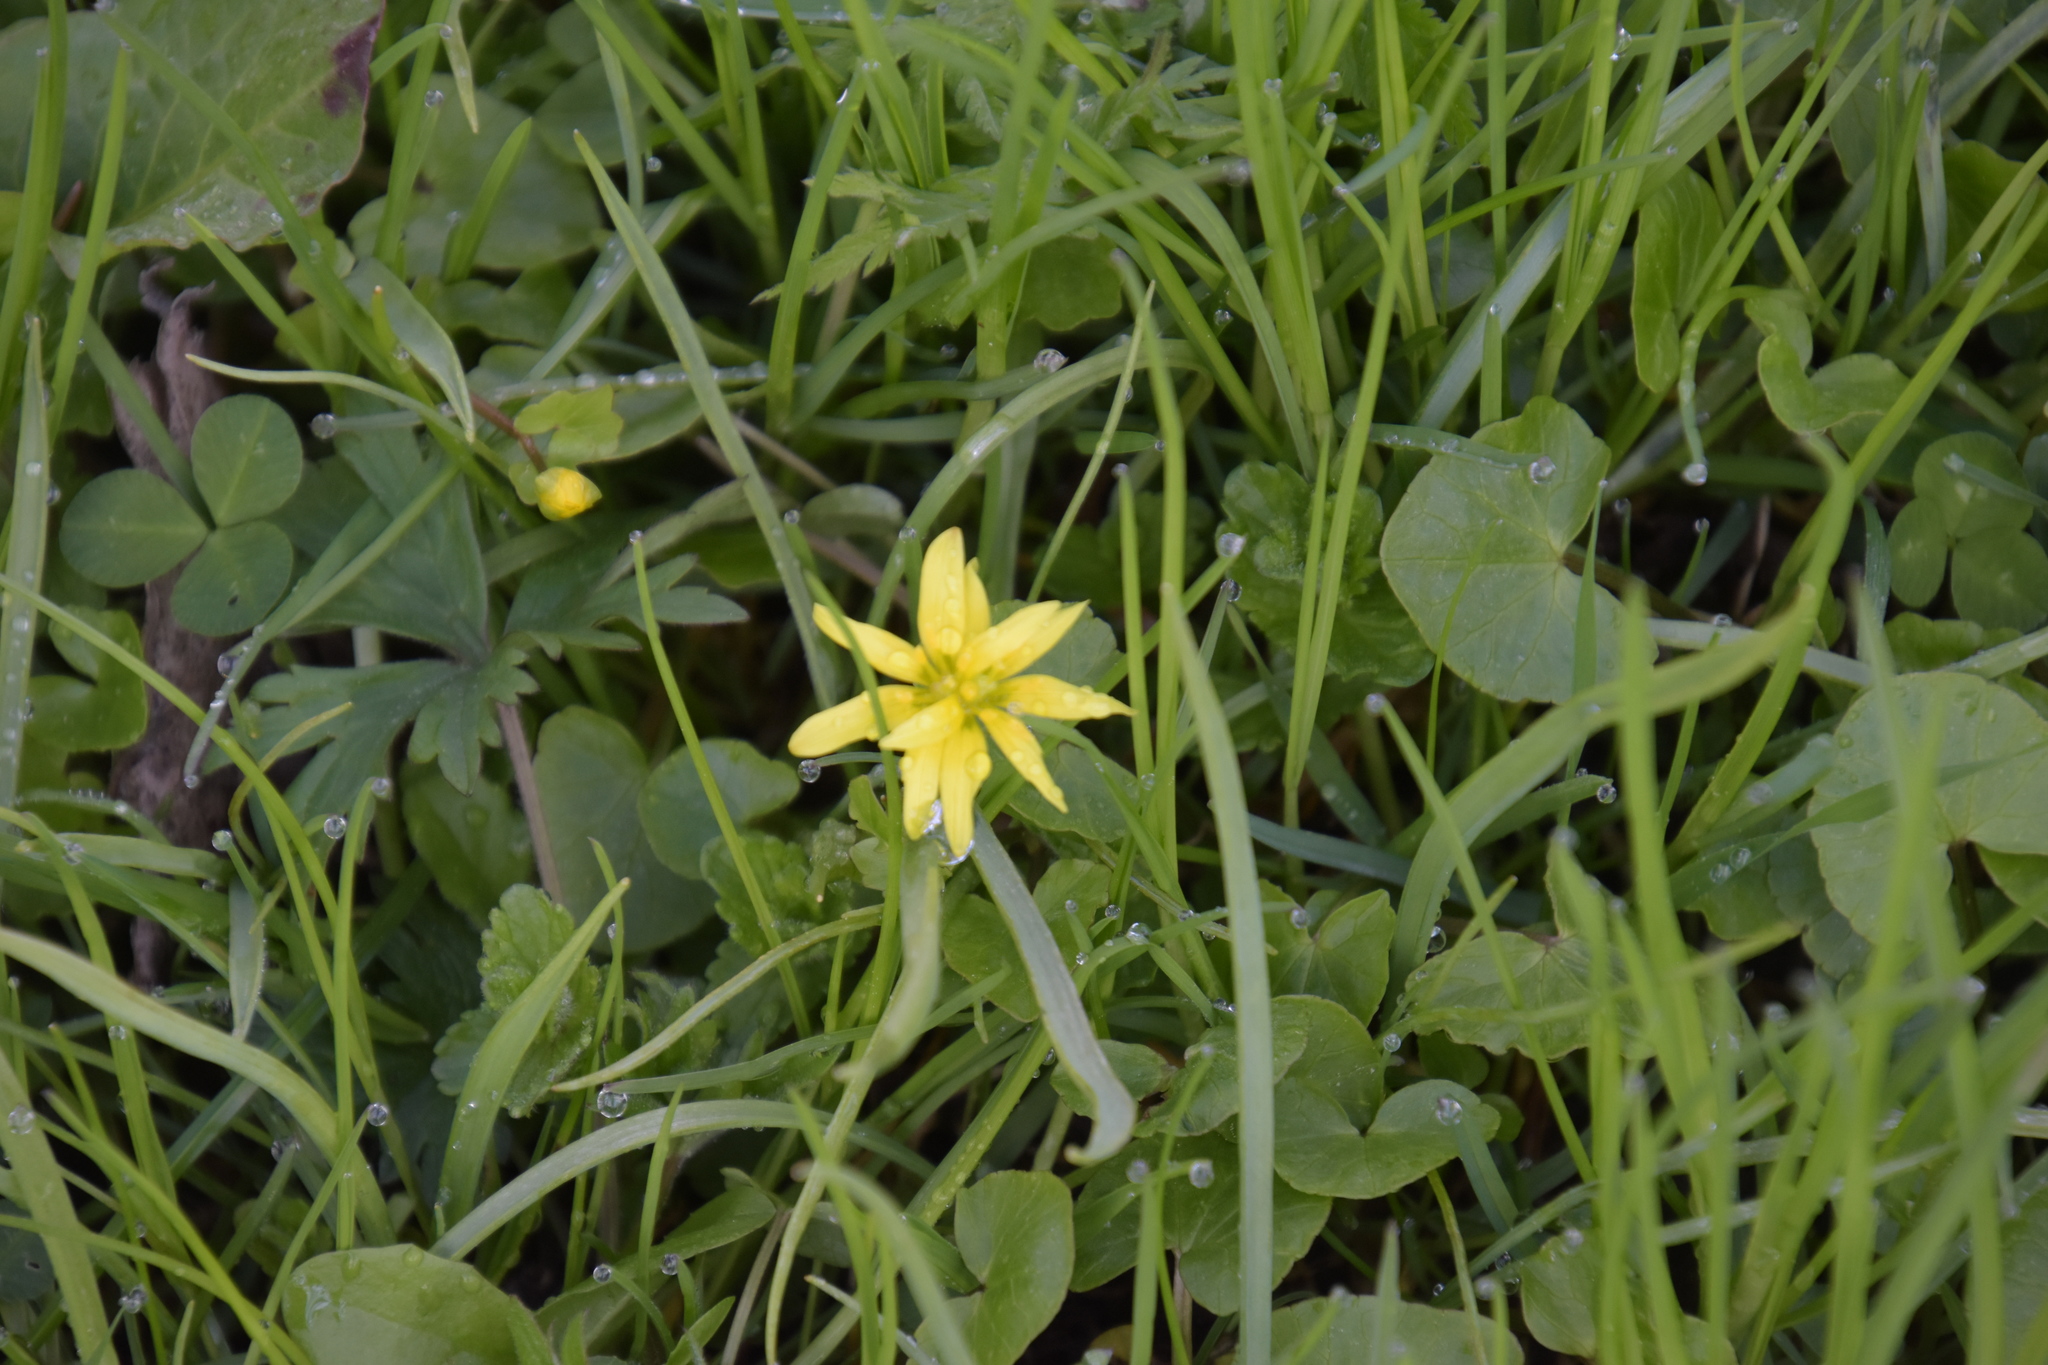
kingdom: Plantae
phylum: Tracheophyta
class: Magnoliopsida
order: Ranunculales
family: Ranunculaceae
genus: Ficaria
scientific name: Ficaria verna
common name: Lesser celandine
